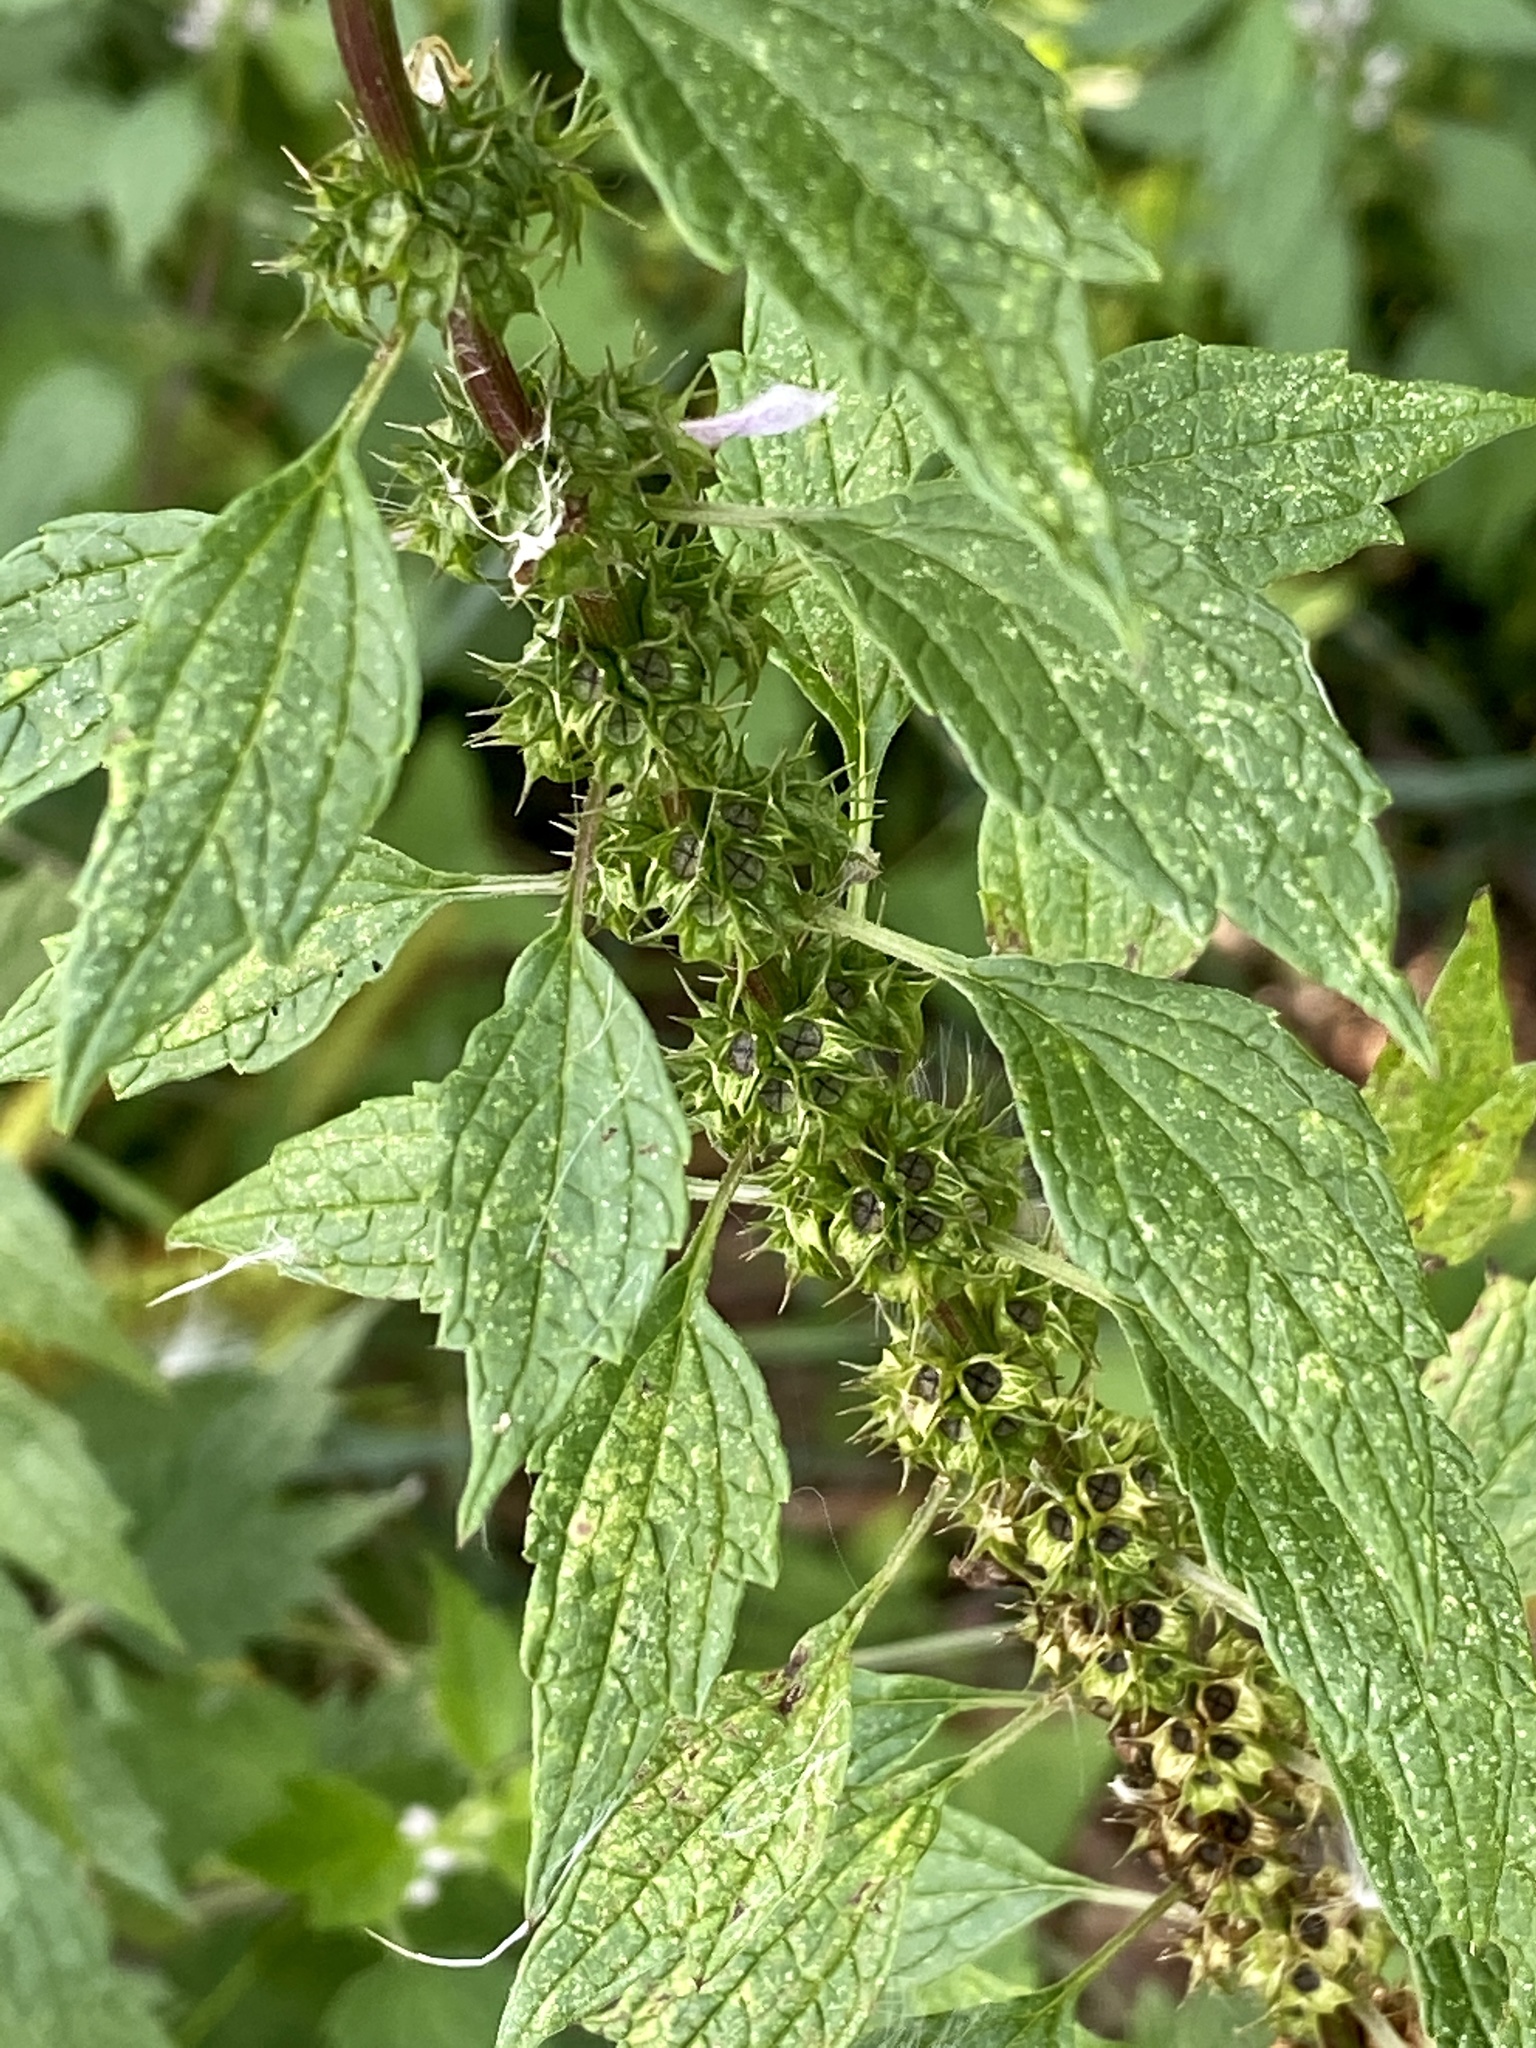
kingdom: Plantae
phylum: Tracheophyta
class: Magnoliopsida
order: Lamiales
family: Lamiaceae
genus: Leonurus
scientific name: Leonurus cardiaca
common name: Motherwort
